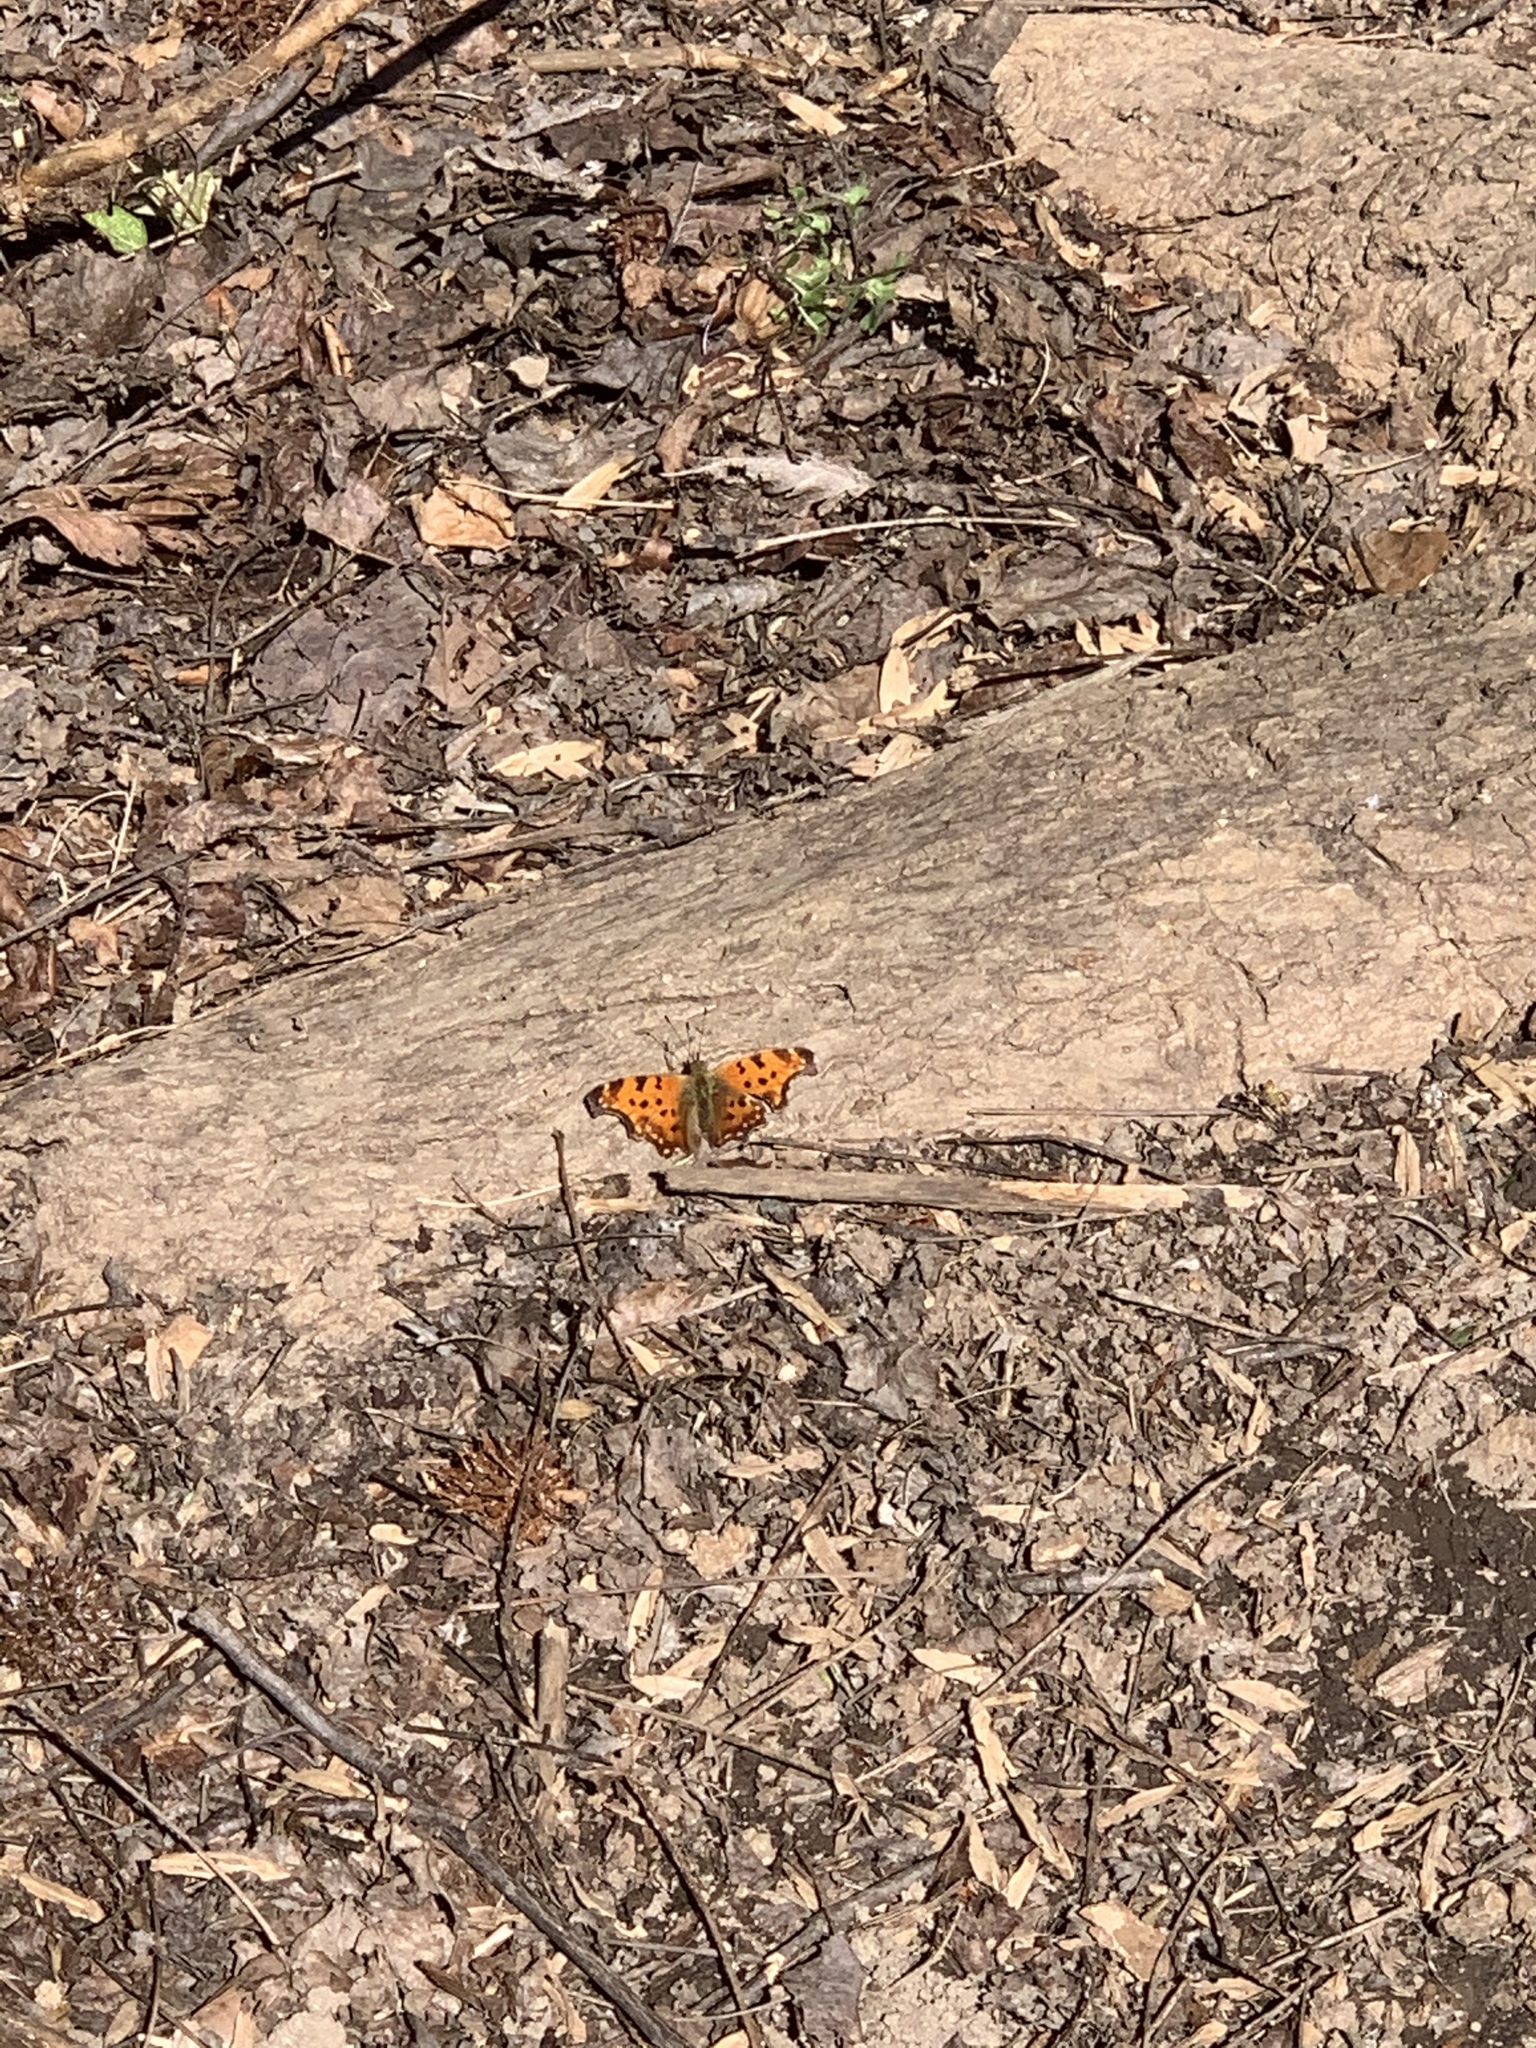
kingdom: Animalia
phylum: Arthropoda
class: Insecta
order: Lepidoptera
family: Nymphalidae
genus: Polygonia
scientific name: Polygonia comma
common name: Eastern comma
